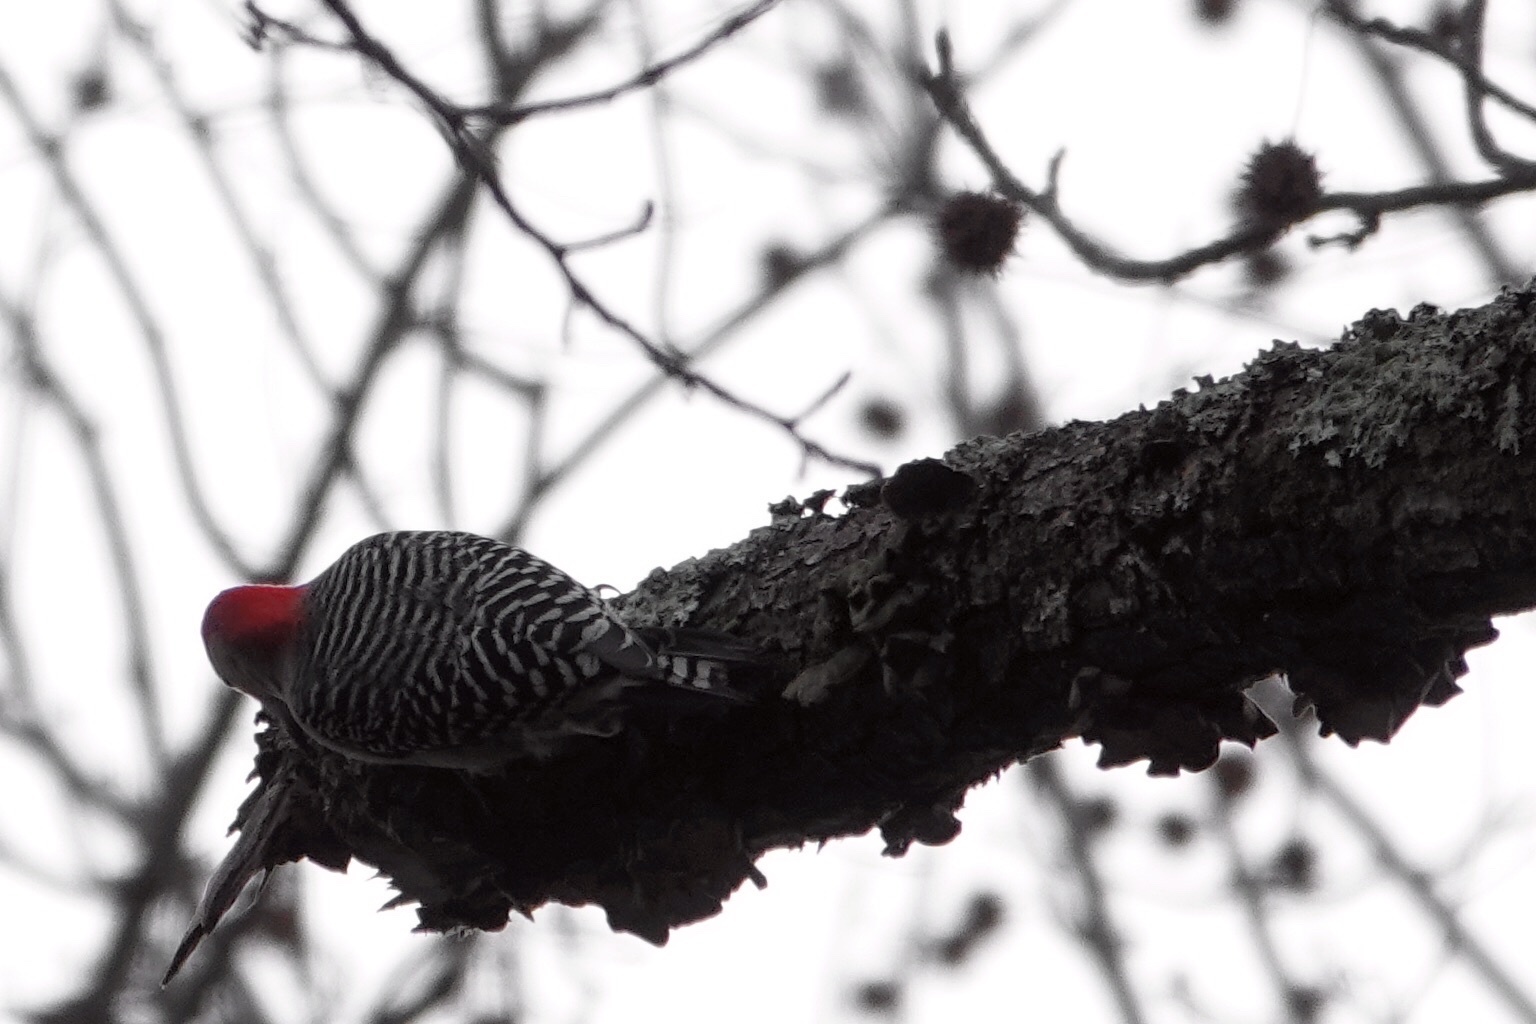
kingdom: Animalia
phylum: Chordata
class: Aves
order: Piciformes
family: Picidae
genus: Melanerpes
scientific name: Melanerpes carolinus
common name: Red-bellied woodpecker
